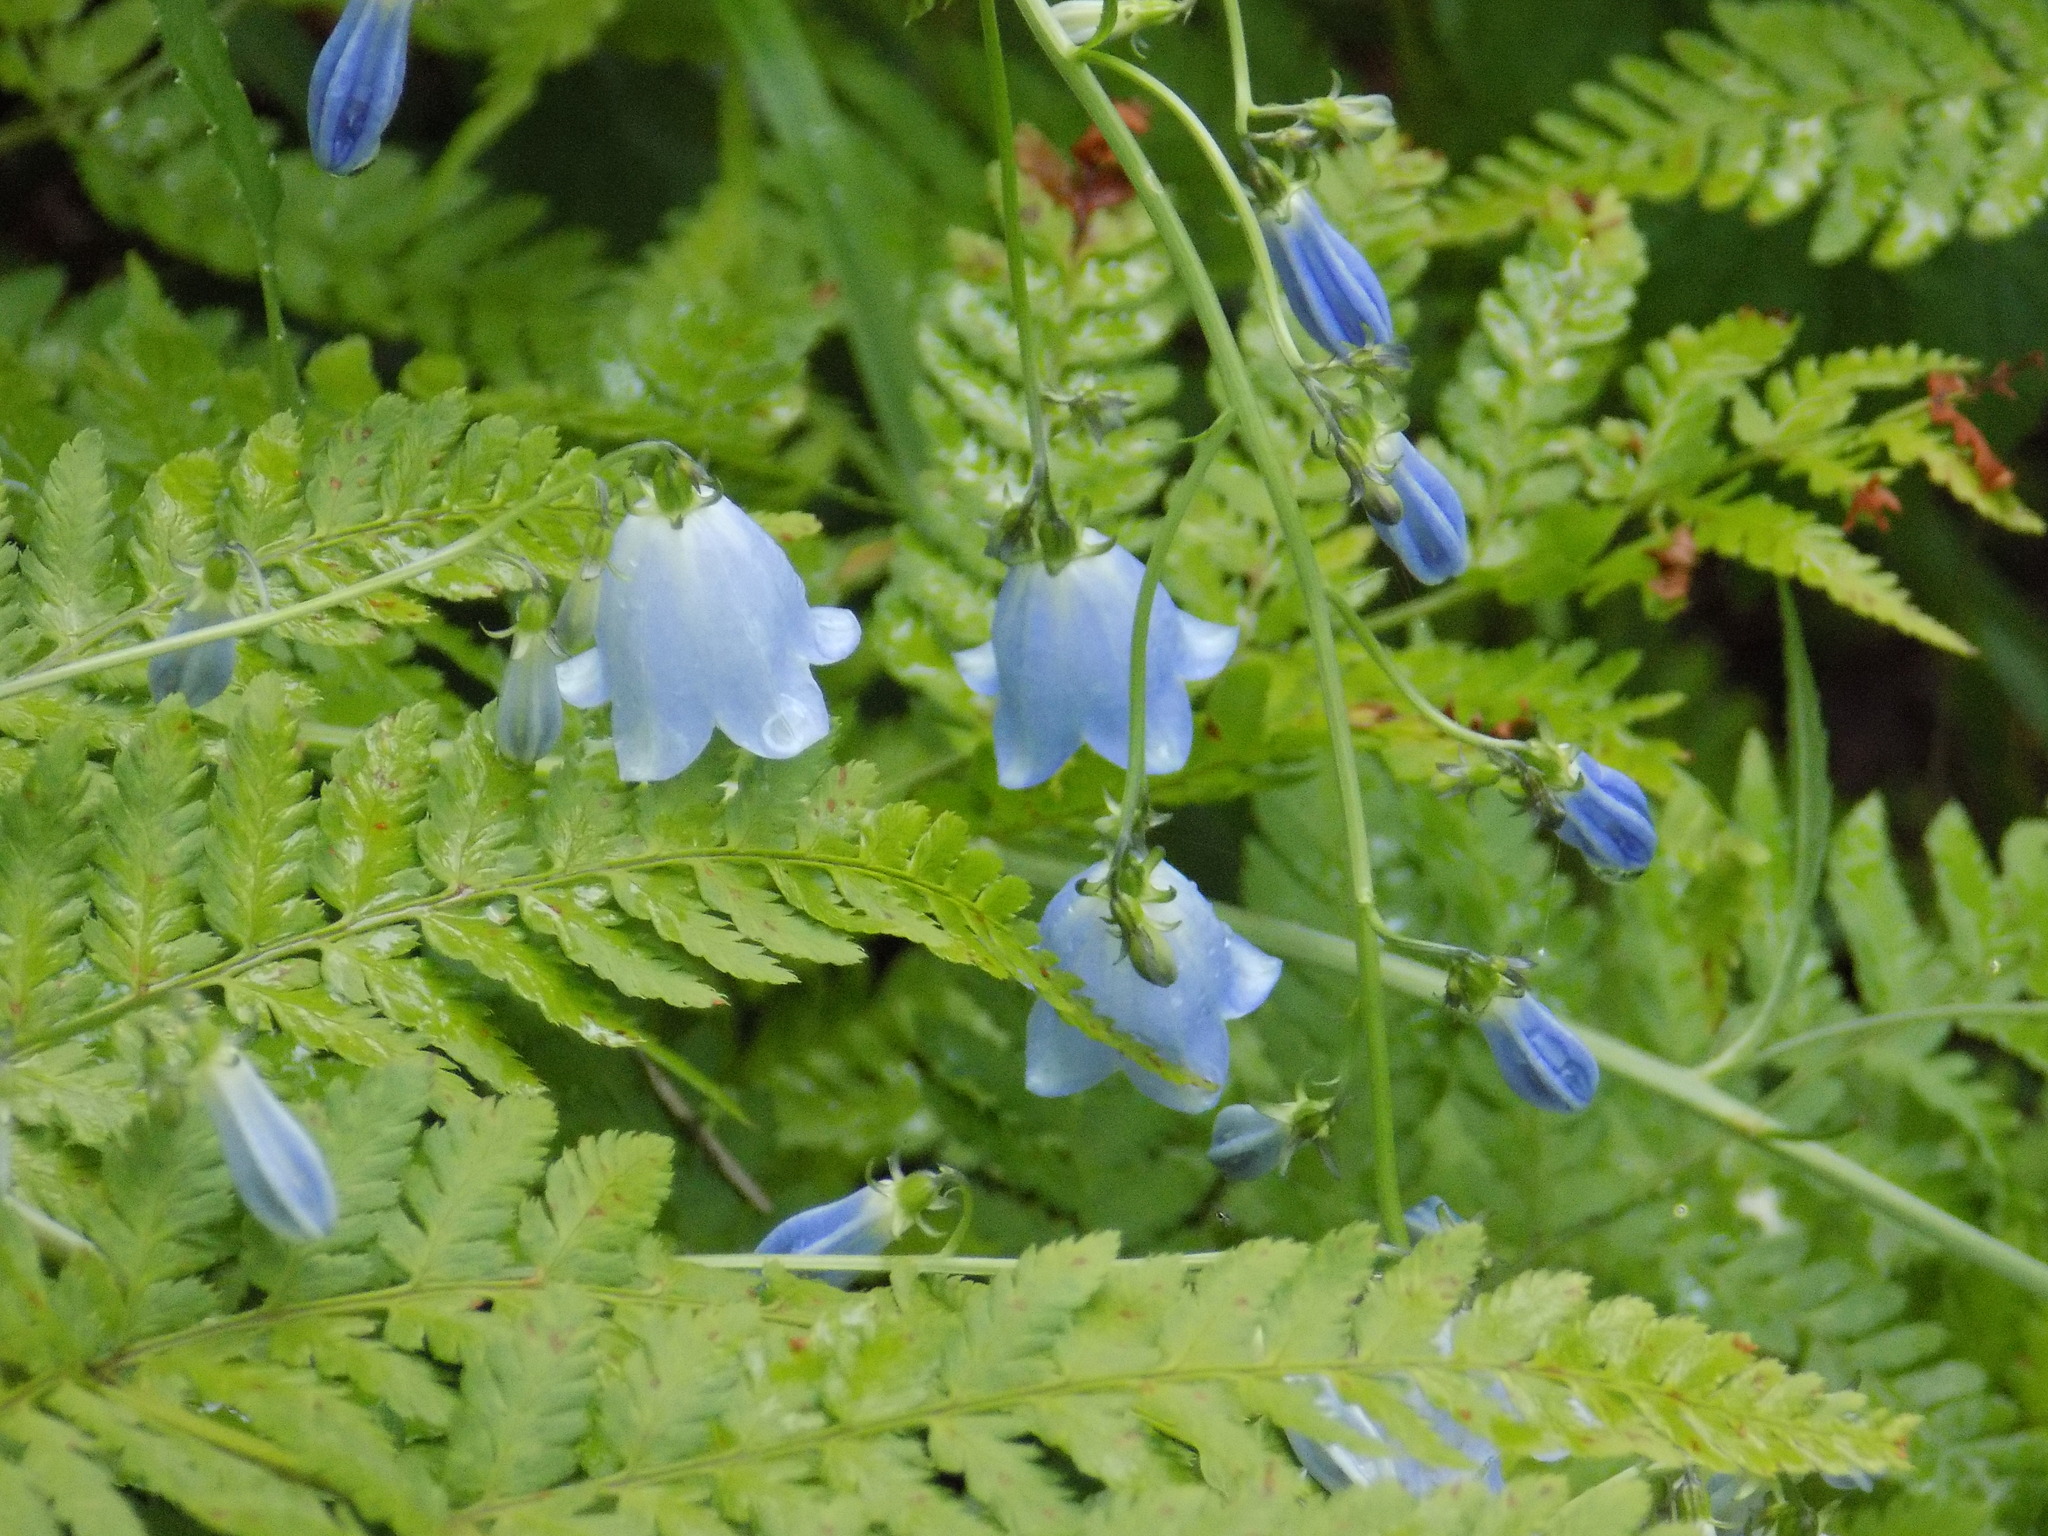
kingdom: Plantae
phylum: Tracheophyta
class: Magnoliopsida
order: Asterales
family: Campanulaceae
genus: Adenophora
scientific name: Adenophora liliifolia
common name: Lilyleaf ladybells
